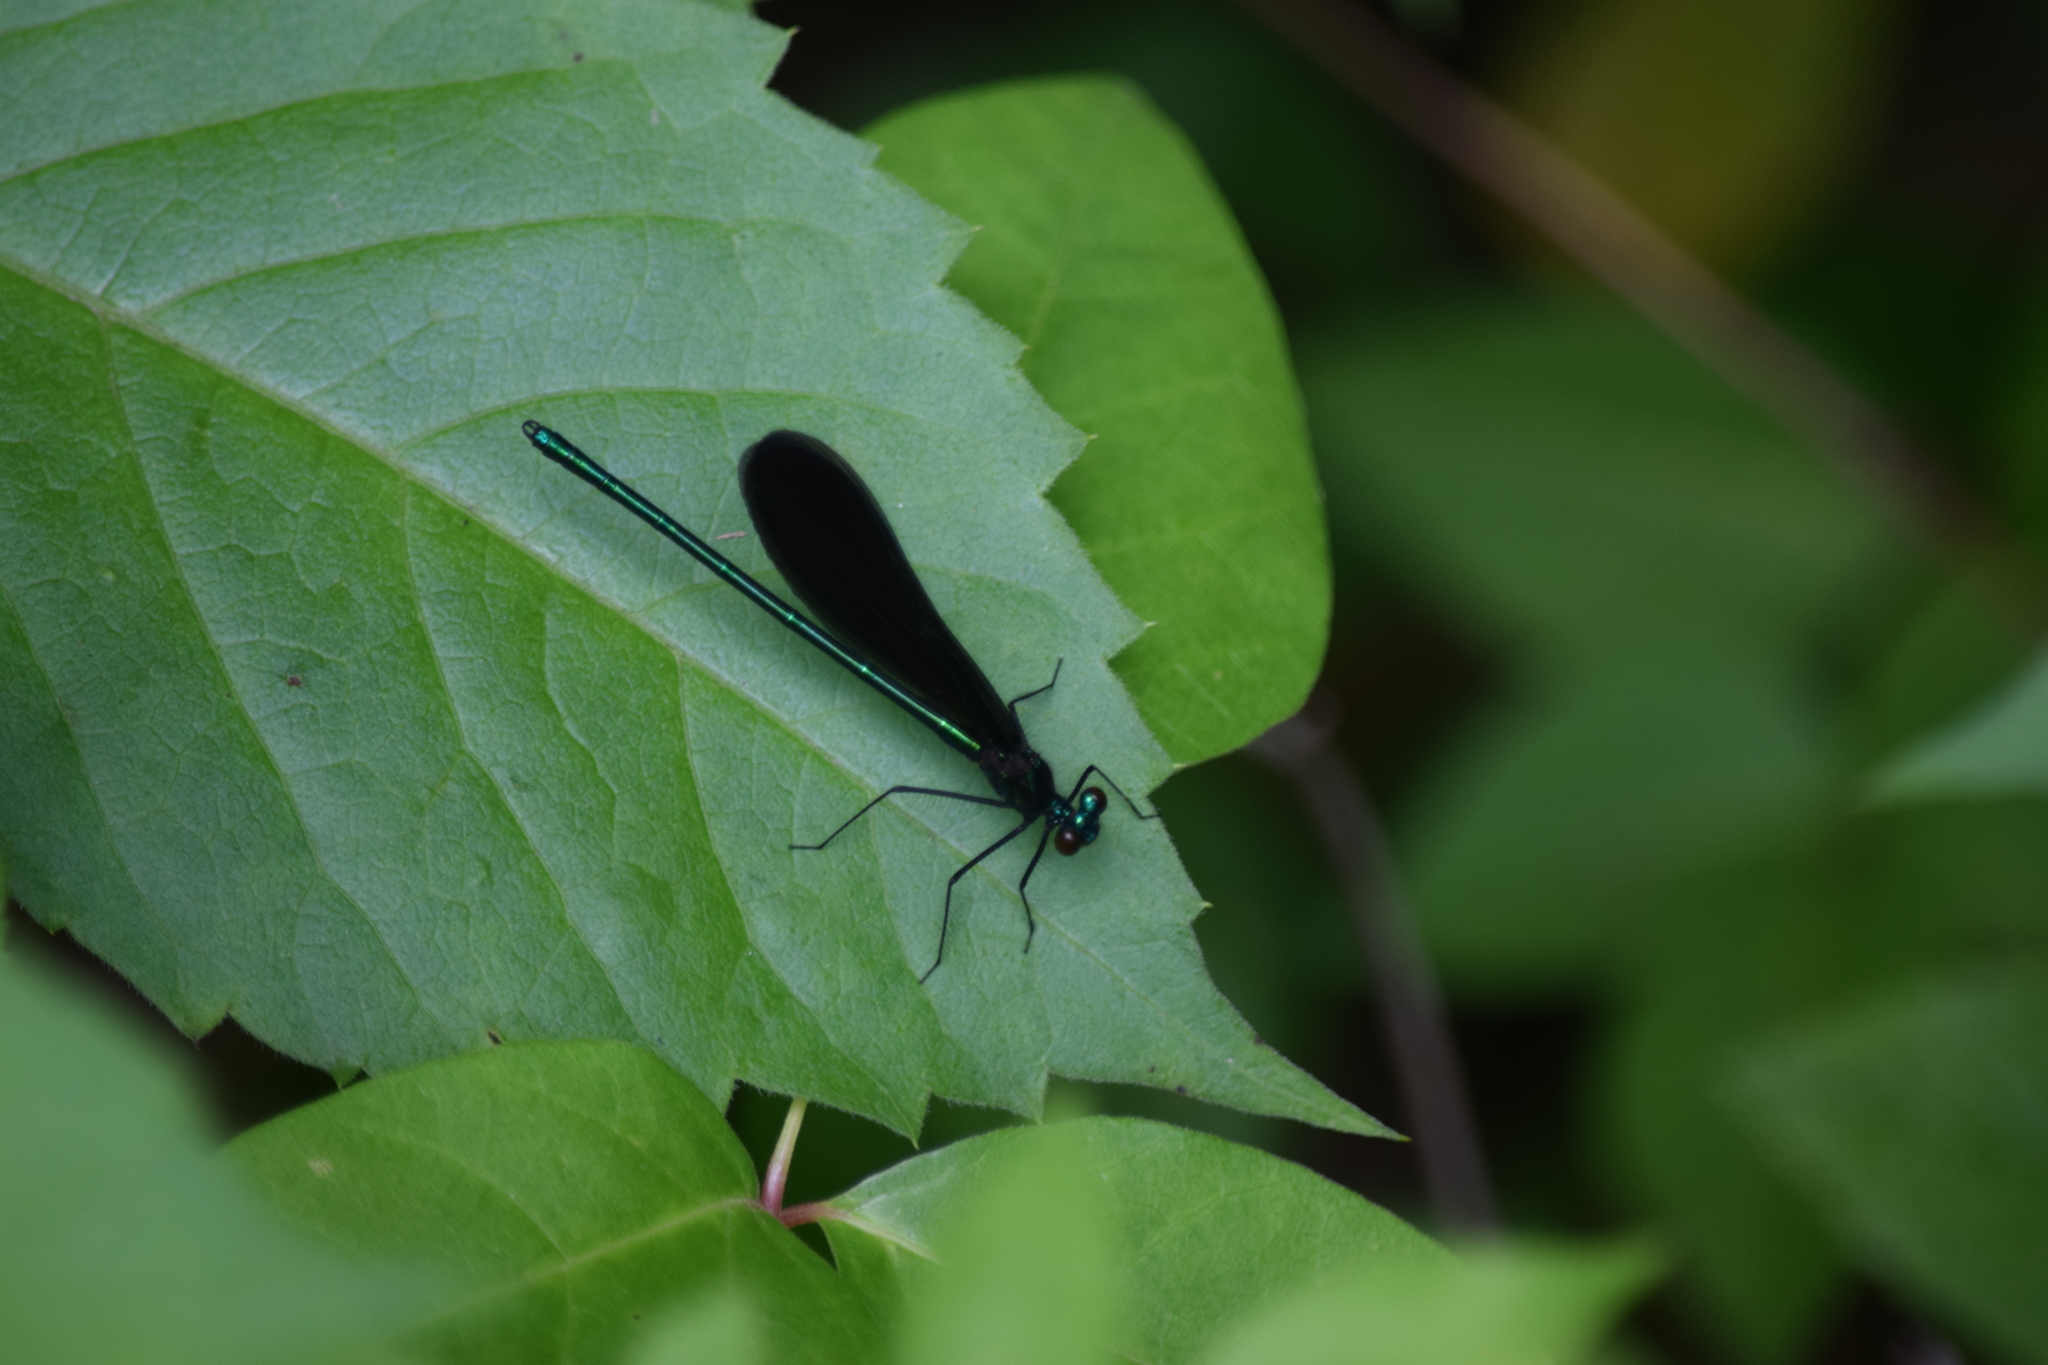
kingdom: Animalia
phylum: Arthropoda
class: Insecta
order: Odonata
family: Calopterygidae
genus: Calopteryx
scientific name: Calopteryx maculata
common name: Ebony jewelwing
